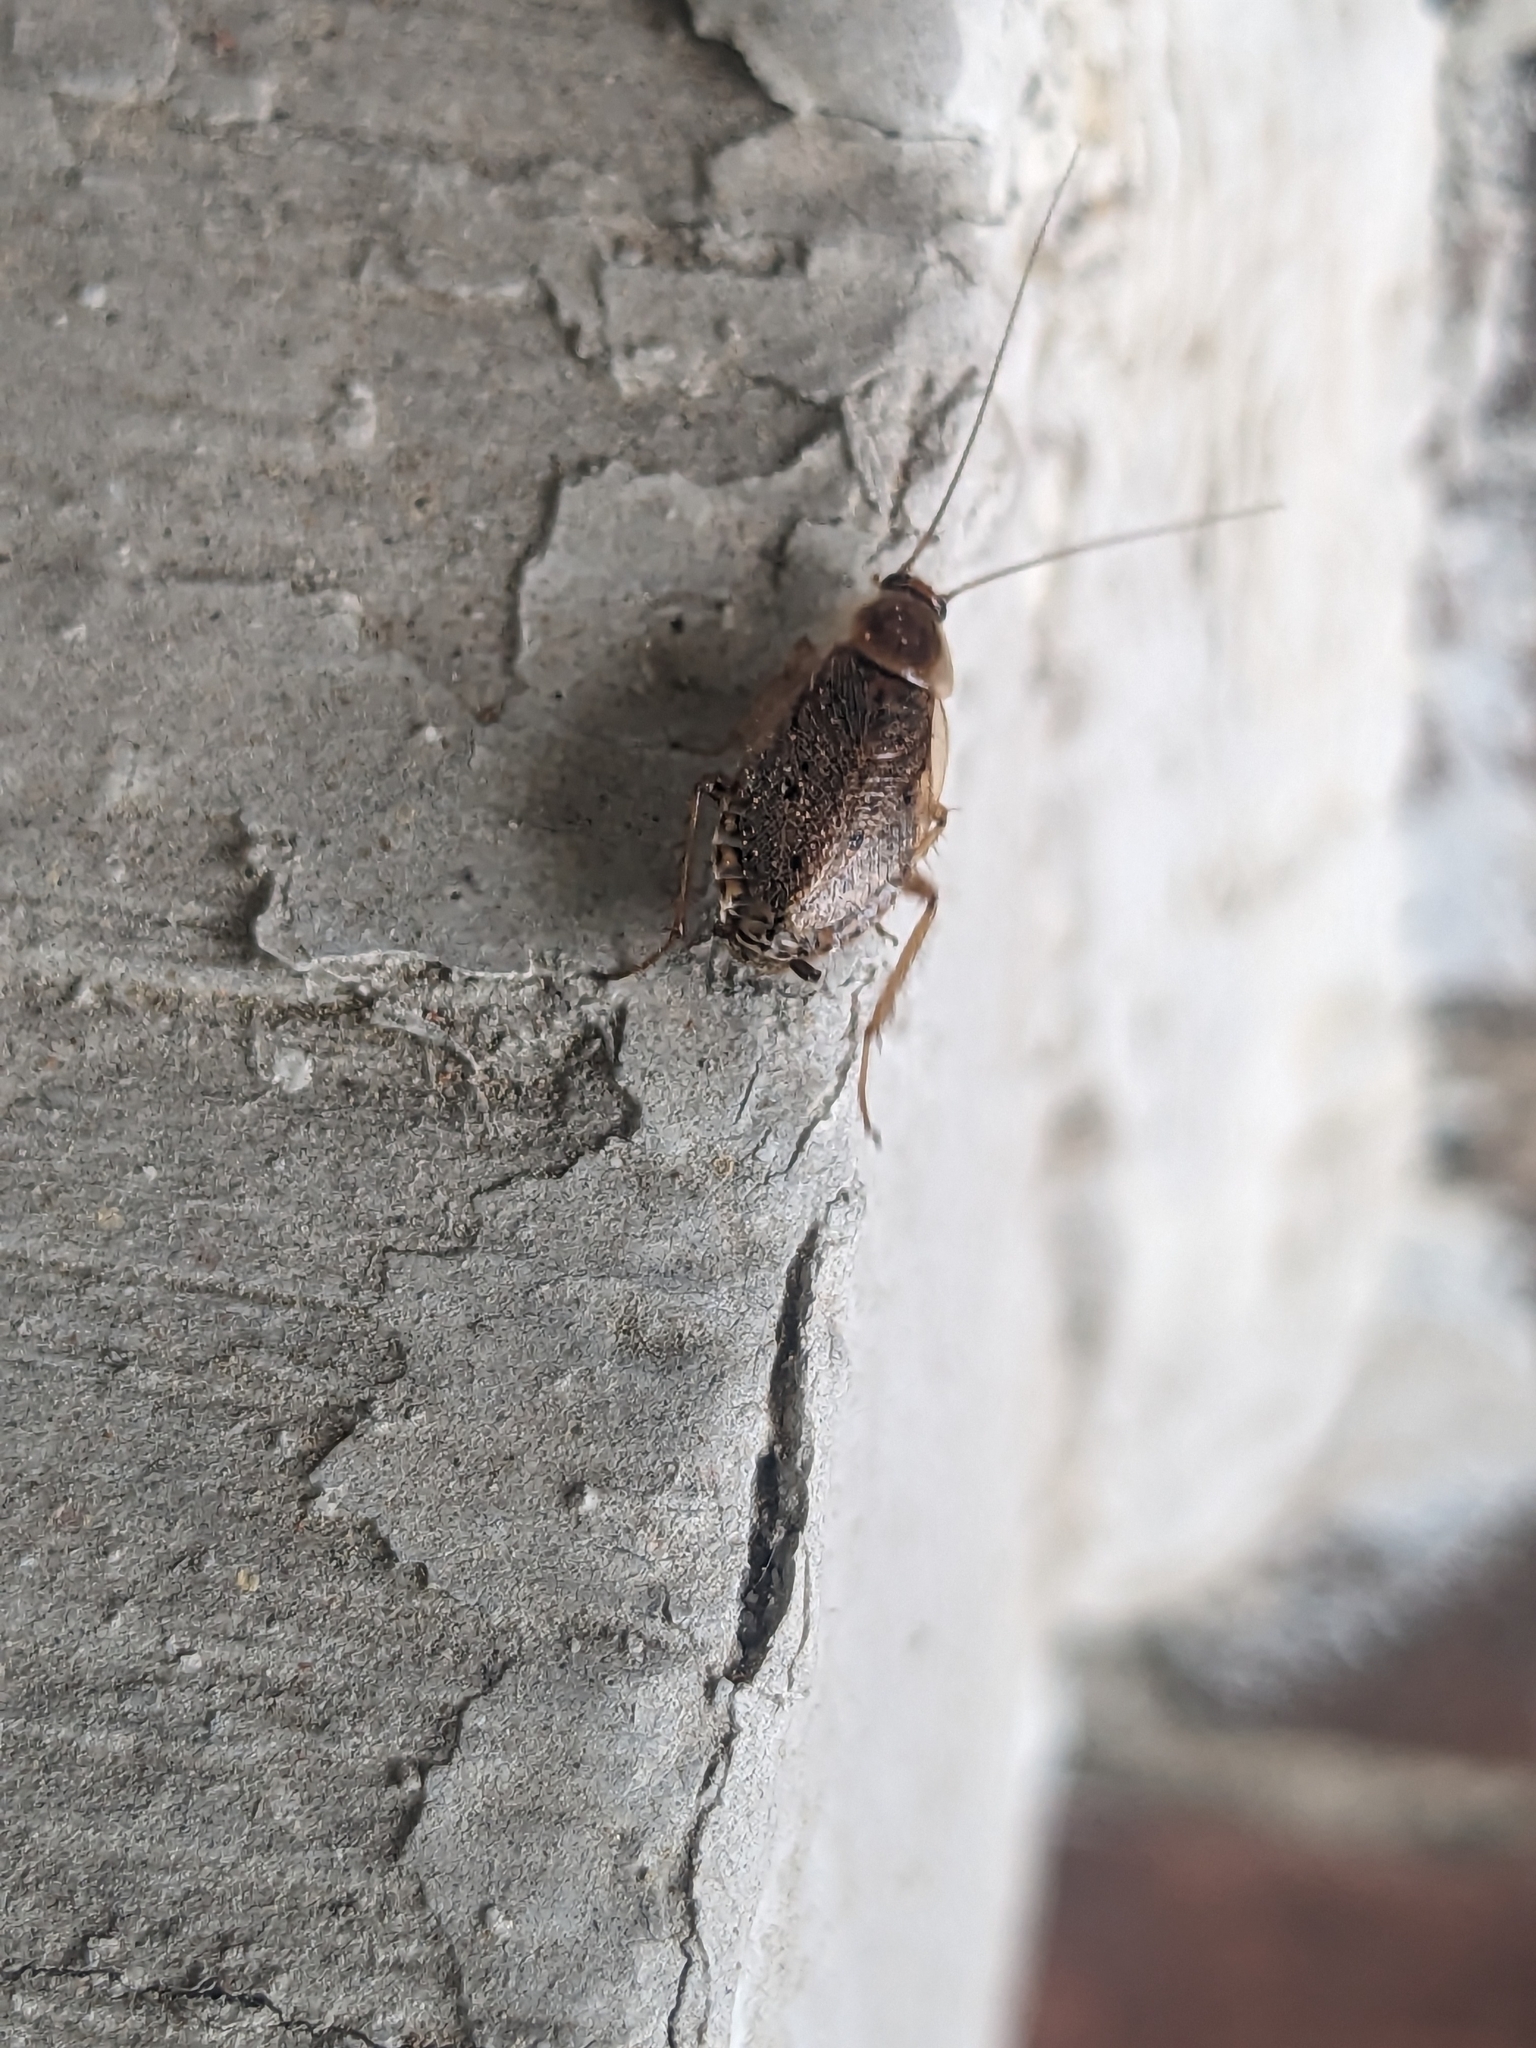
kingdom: Animalia
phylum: Arthropoda
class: Insecta
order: Blattodea
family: Ectobiidae
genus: Ectobius
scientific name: Ectobius lapponicus
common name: Dusky cockroach
